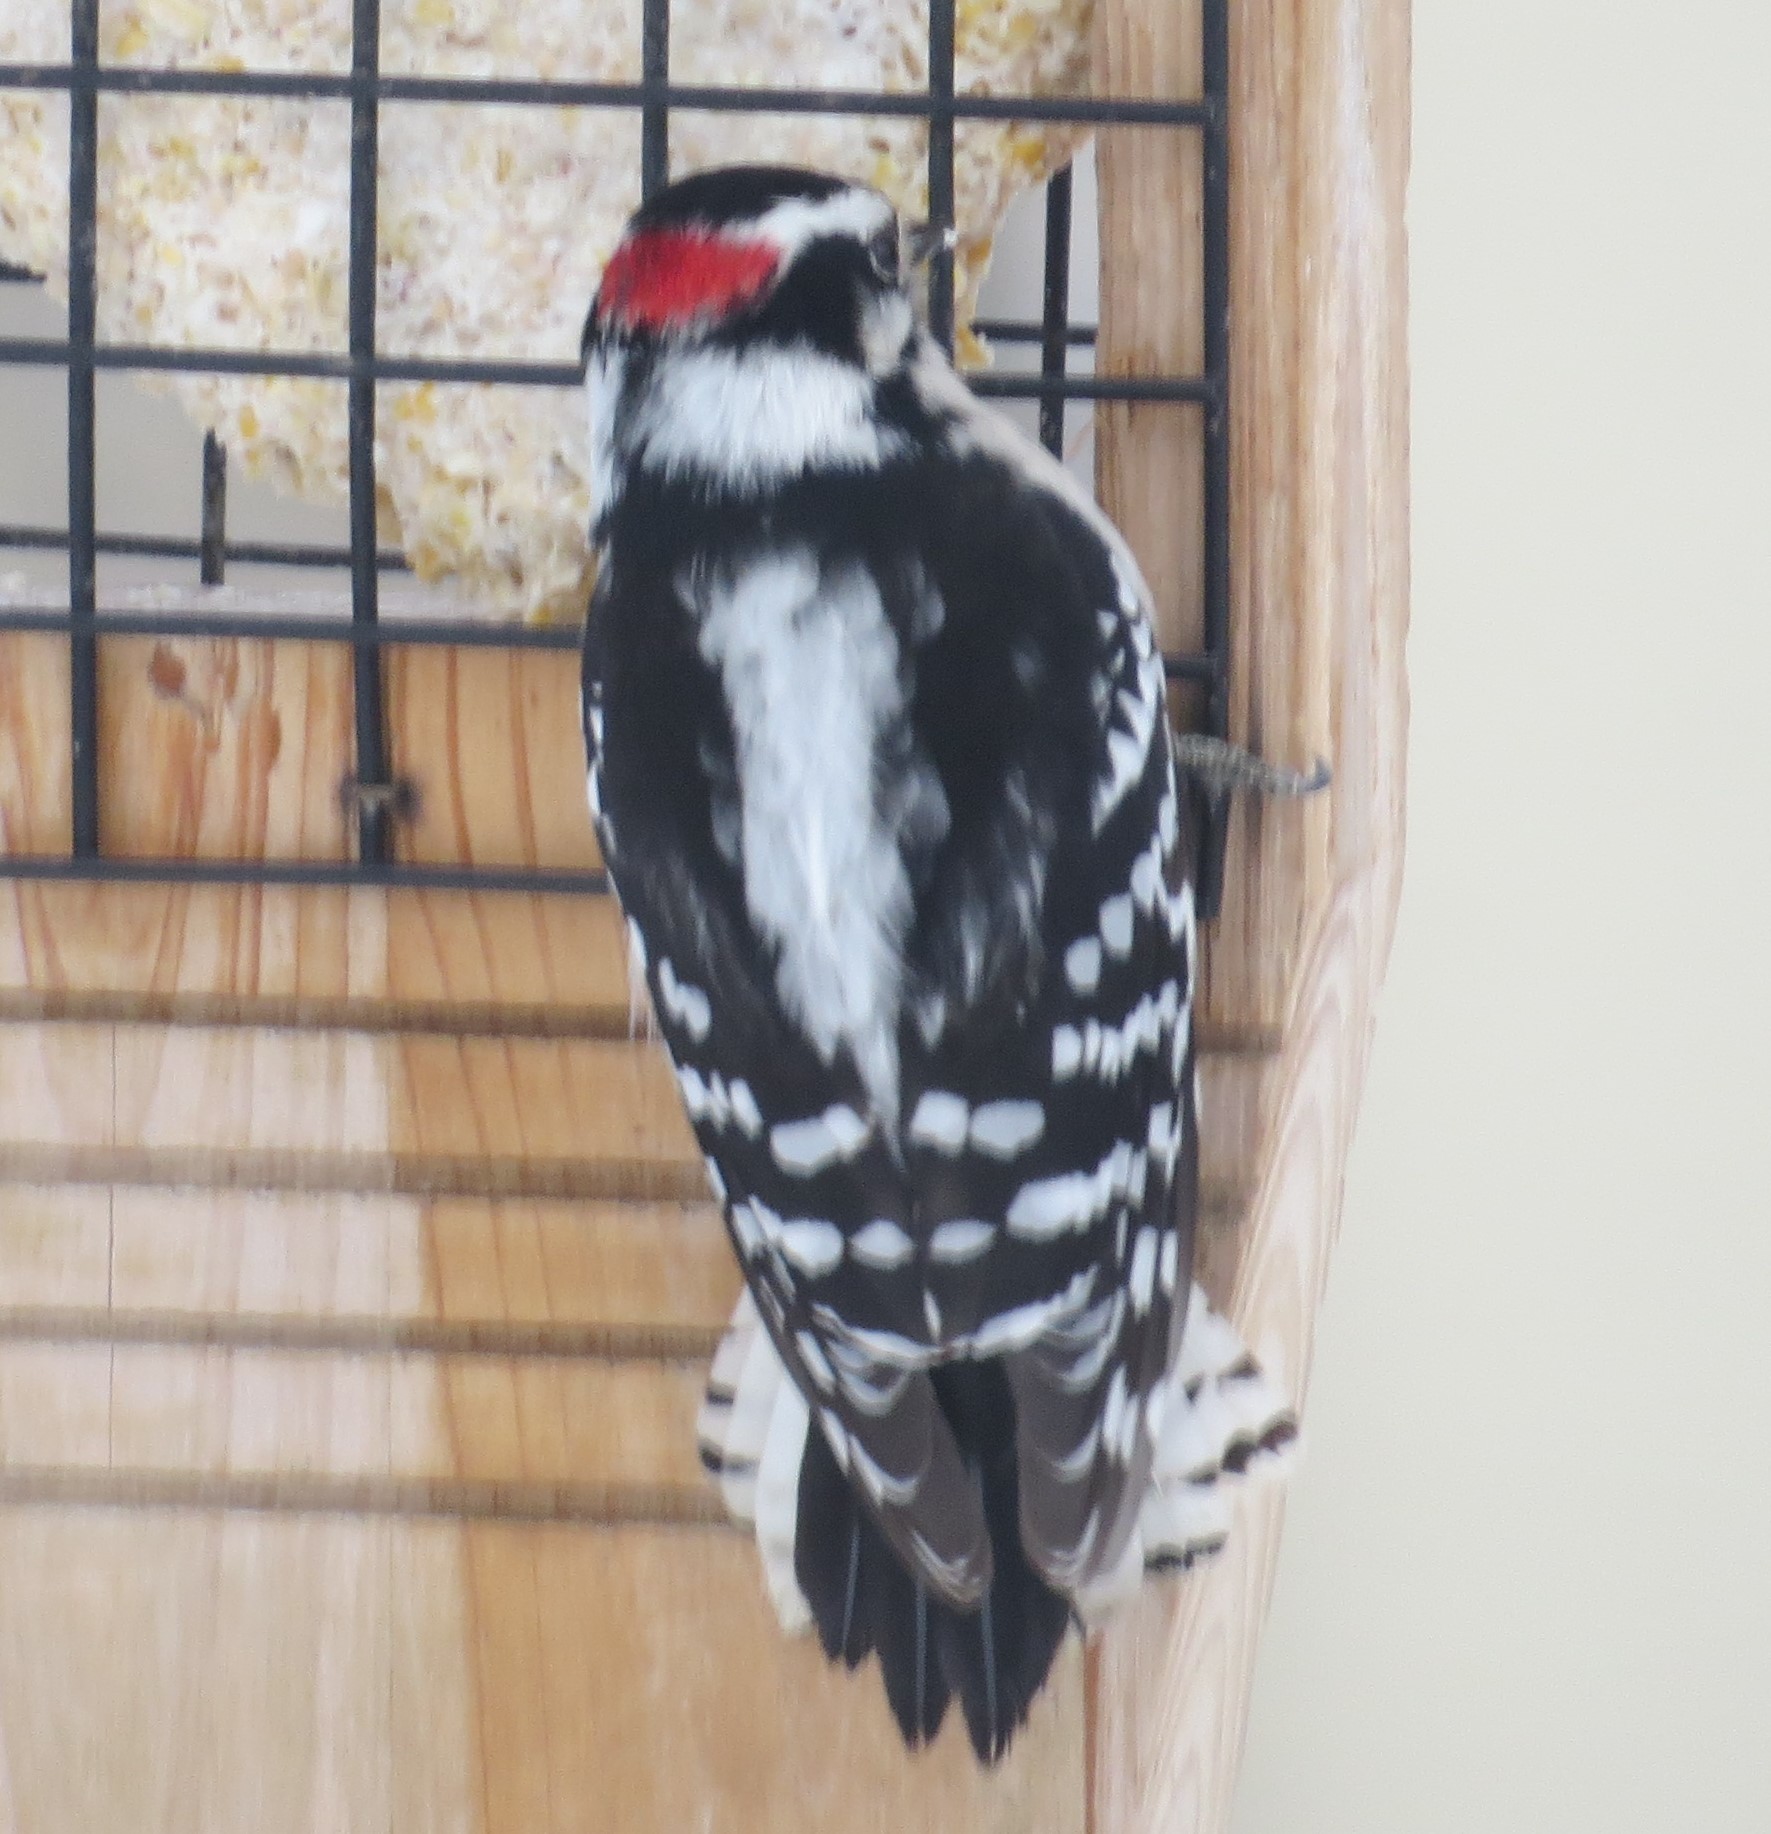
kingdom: Animalia
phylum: Chordata
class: Aves
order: Piciformes
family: Picidae
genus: Dryobates
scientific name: Dryobates pubescens
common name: Downy woodpecker
